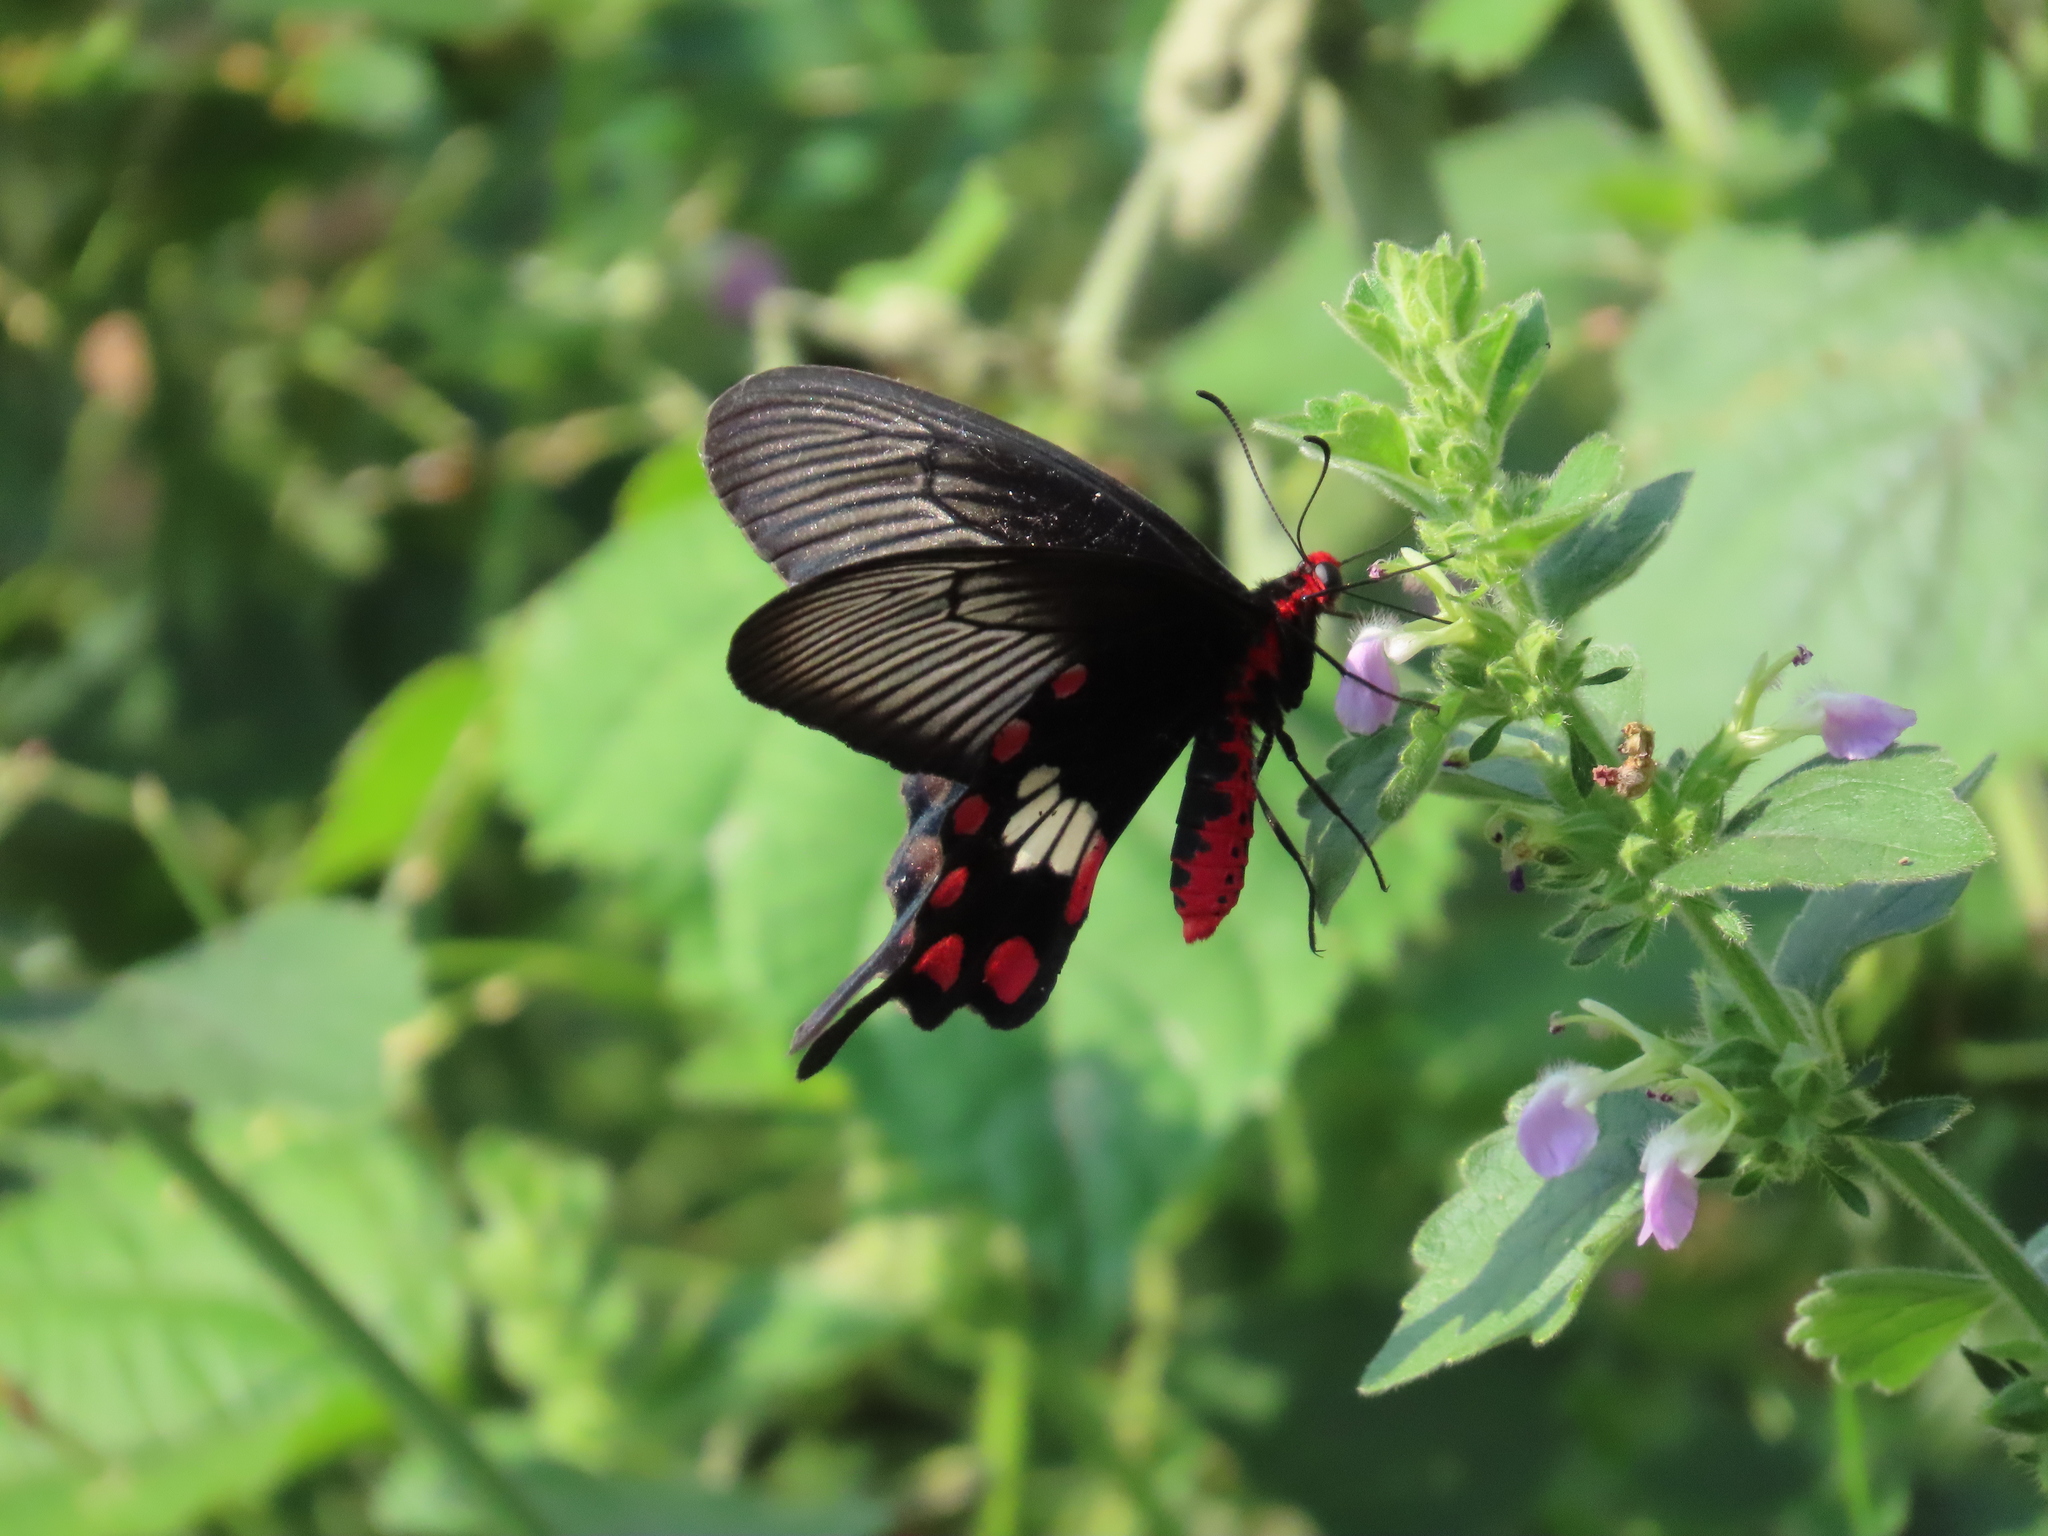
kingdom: Animalia
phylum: Arthropoda
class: Insecta
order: Lepidoptera
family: Papilionidae
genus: Pachliopta
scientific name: Pachliopta aristolochiae
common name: Common rose
